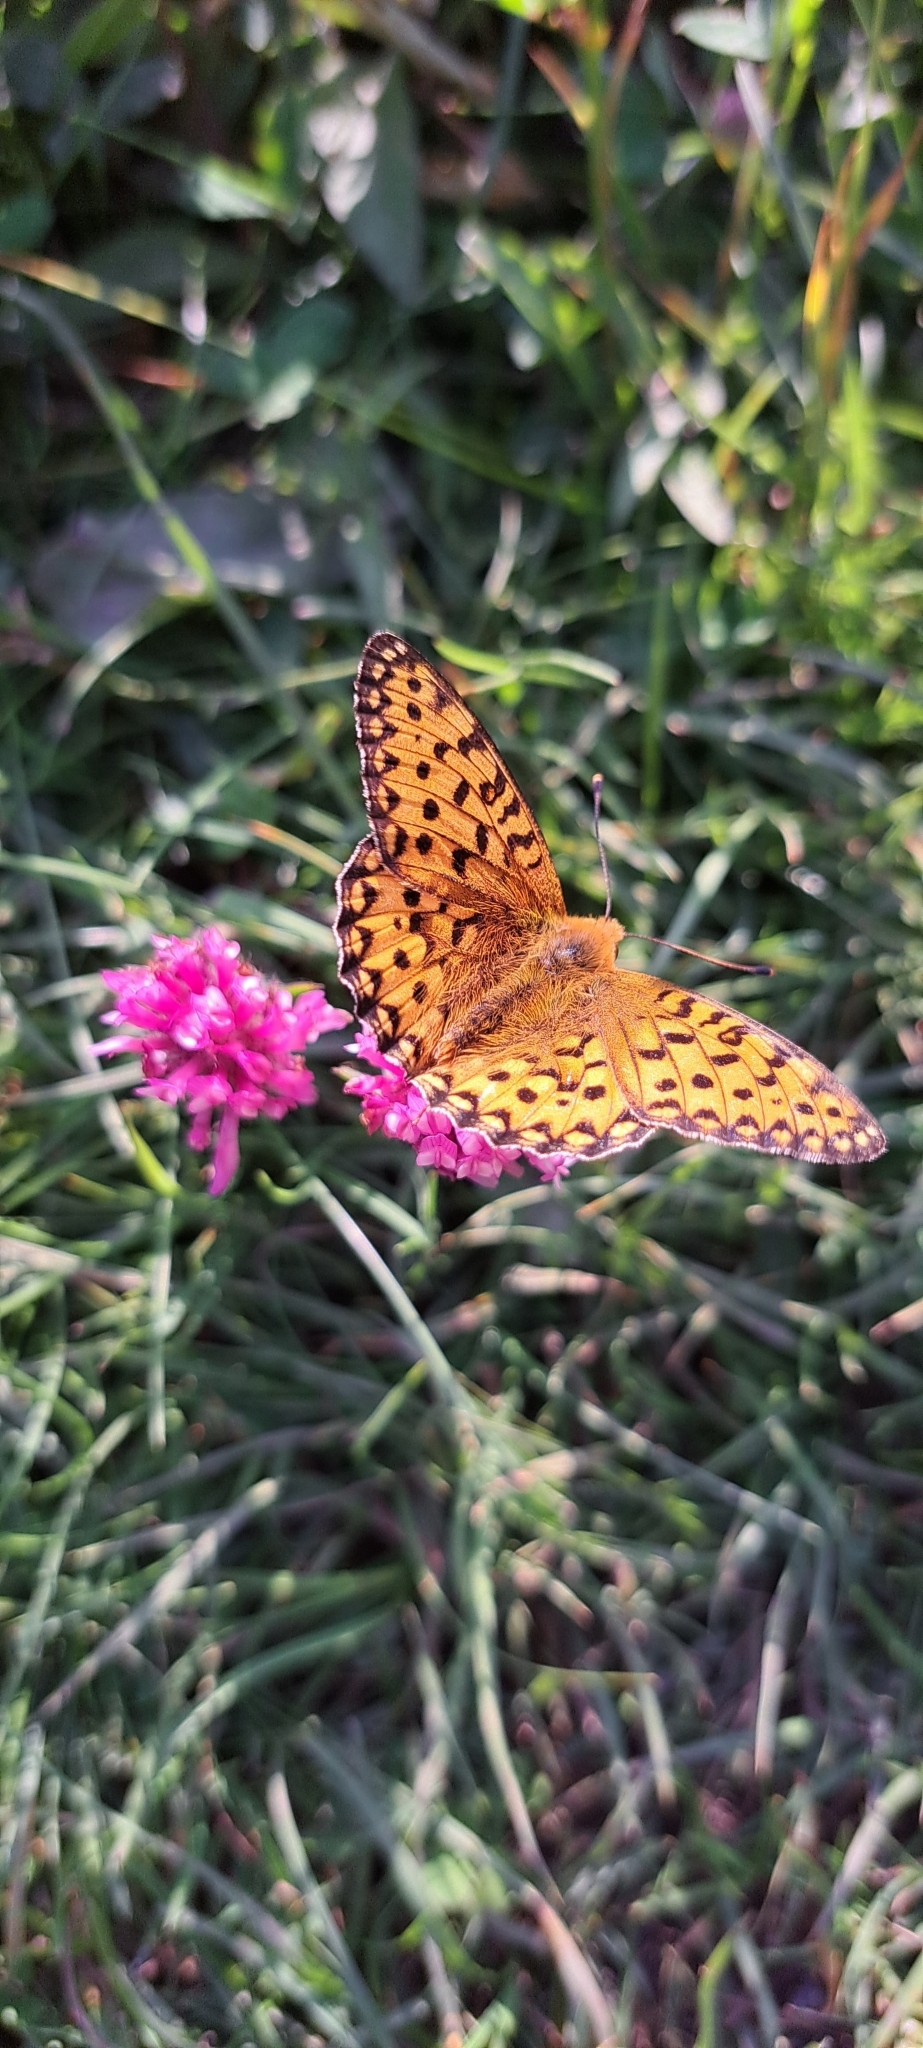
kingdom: Animalia
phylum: Arthropoda
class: Insecta
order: Lepidoptera
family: Nymphalidae
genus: Speyeria
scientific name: Speyeria aglaja
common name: Dark green fritillary
